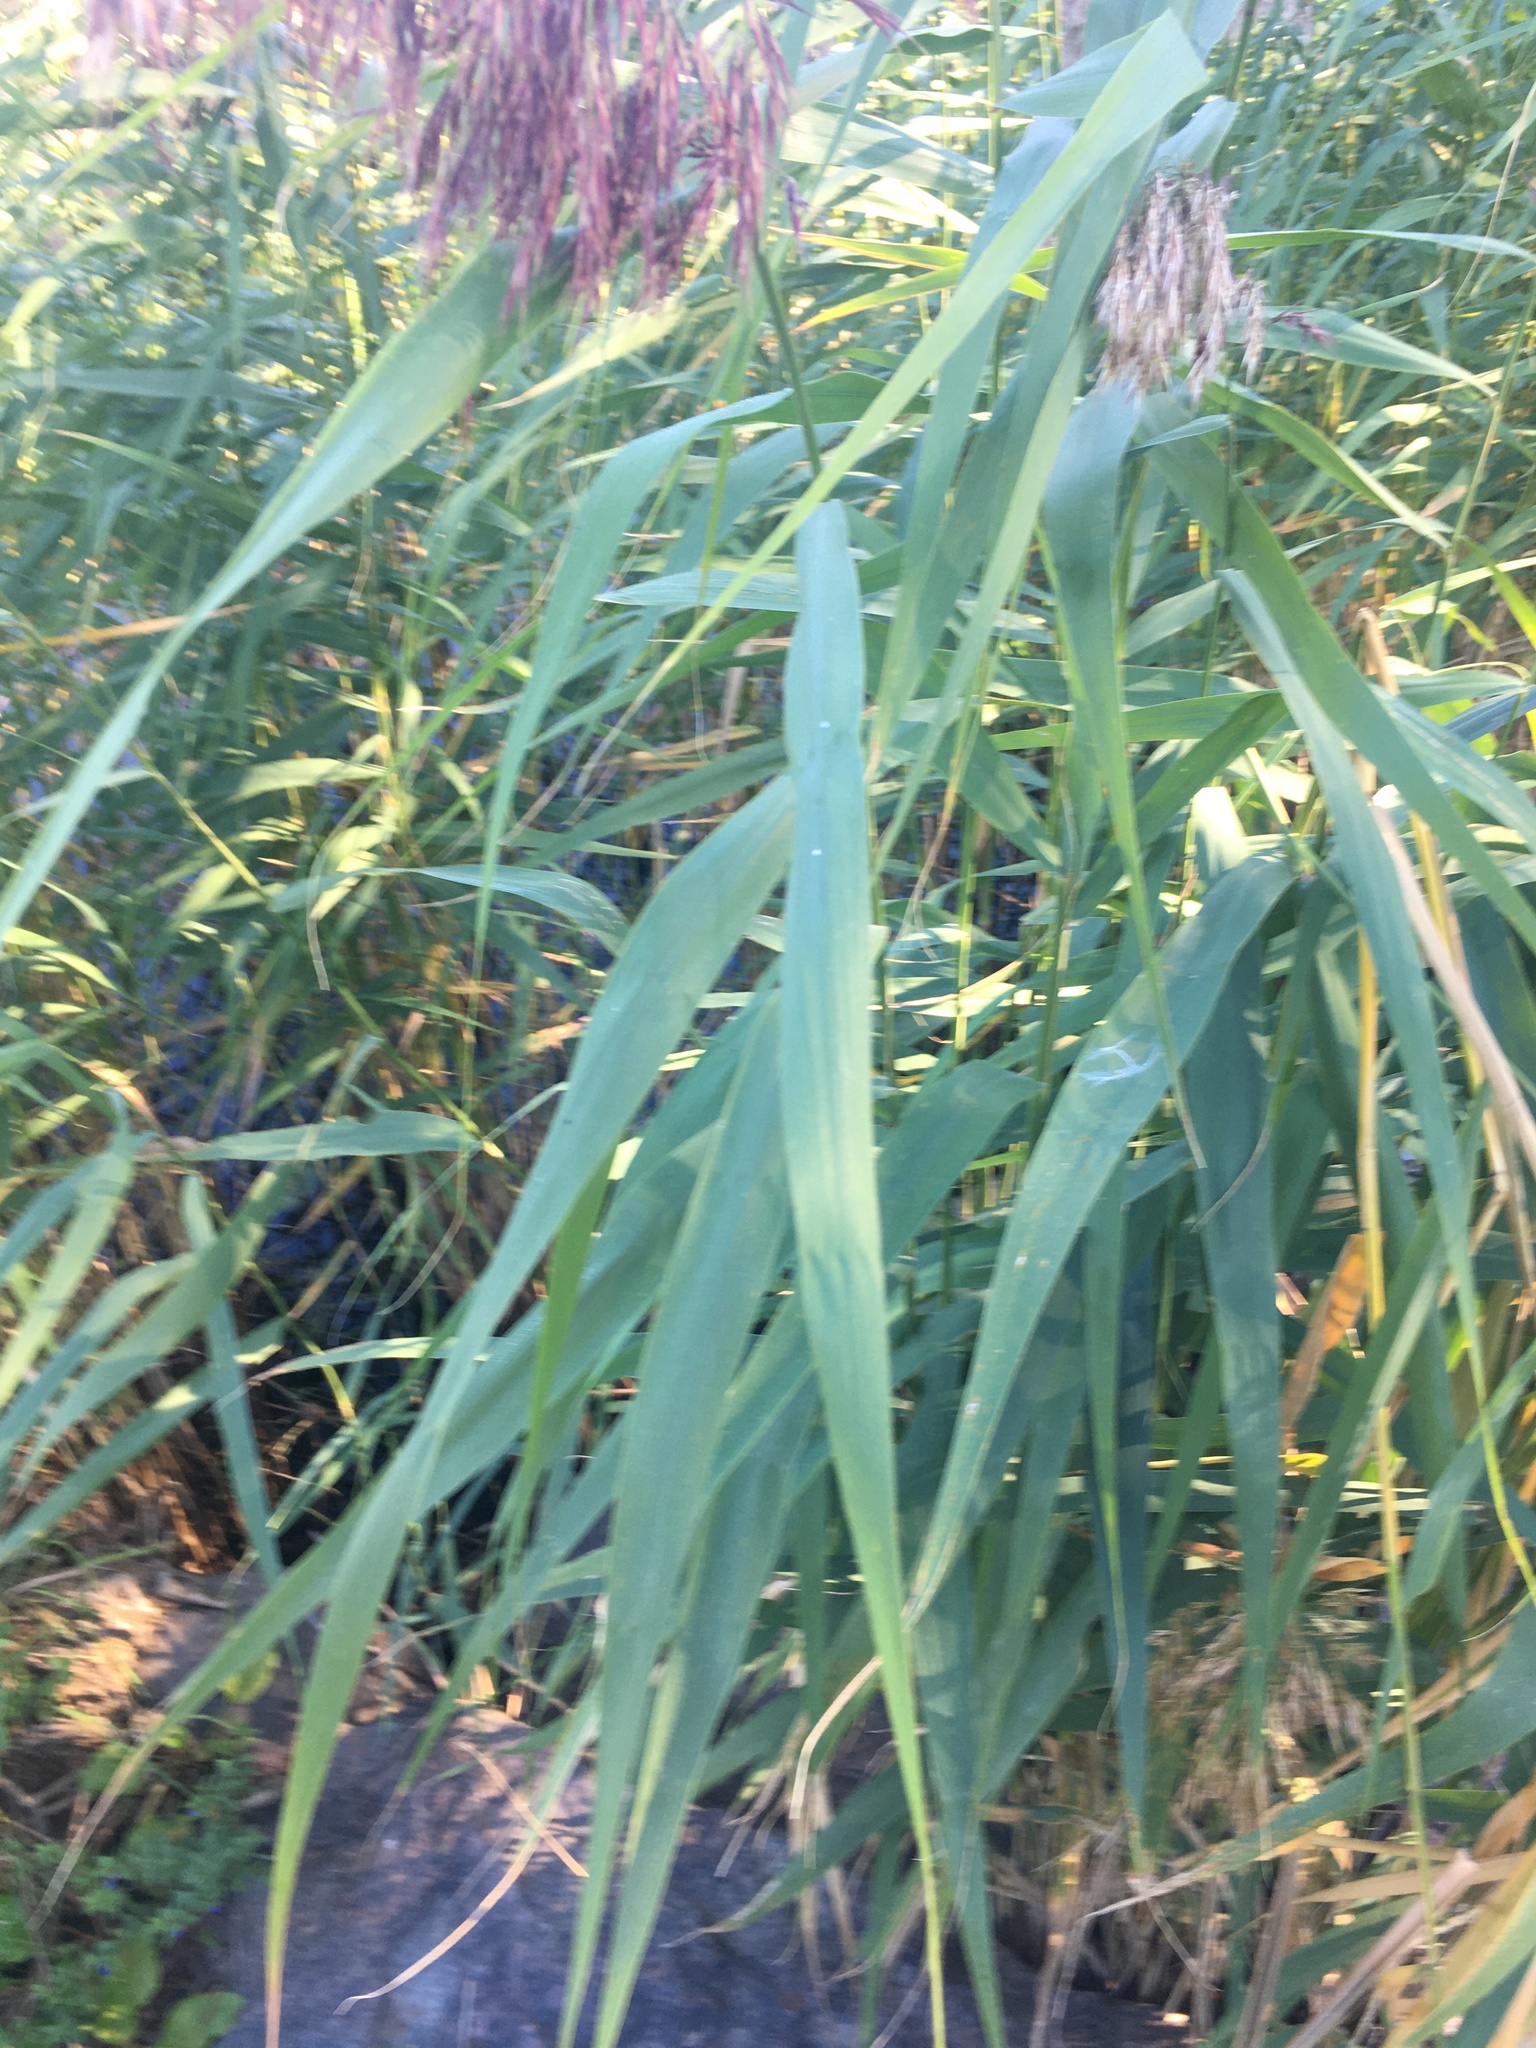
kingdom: Plantae
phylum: Tracheophyta
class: Liliopsida
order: Poales
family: Poaceae
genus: Phragmites
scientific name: Phragmites australis
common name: Common reed
